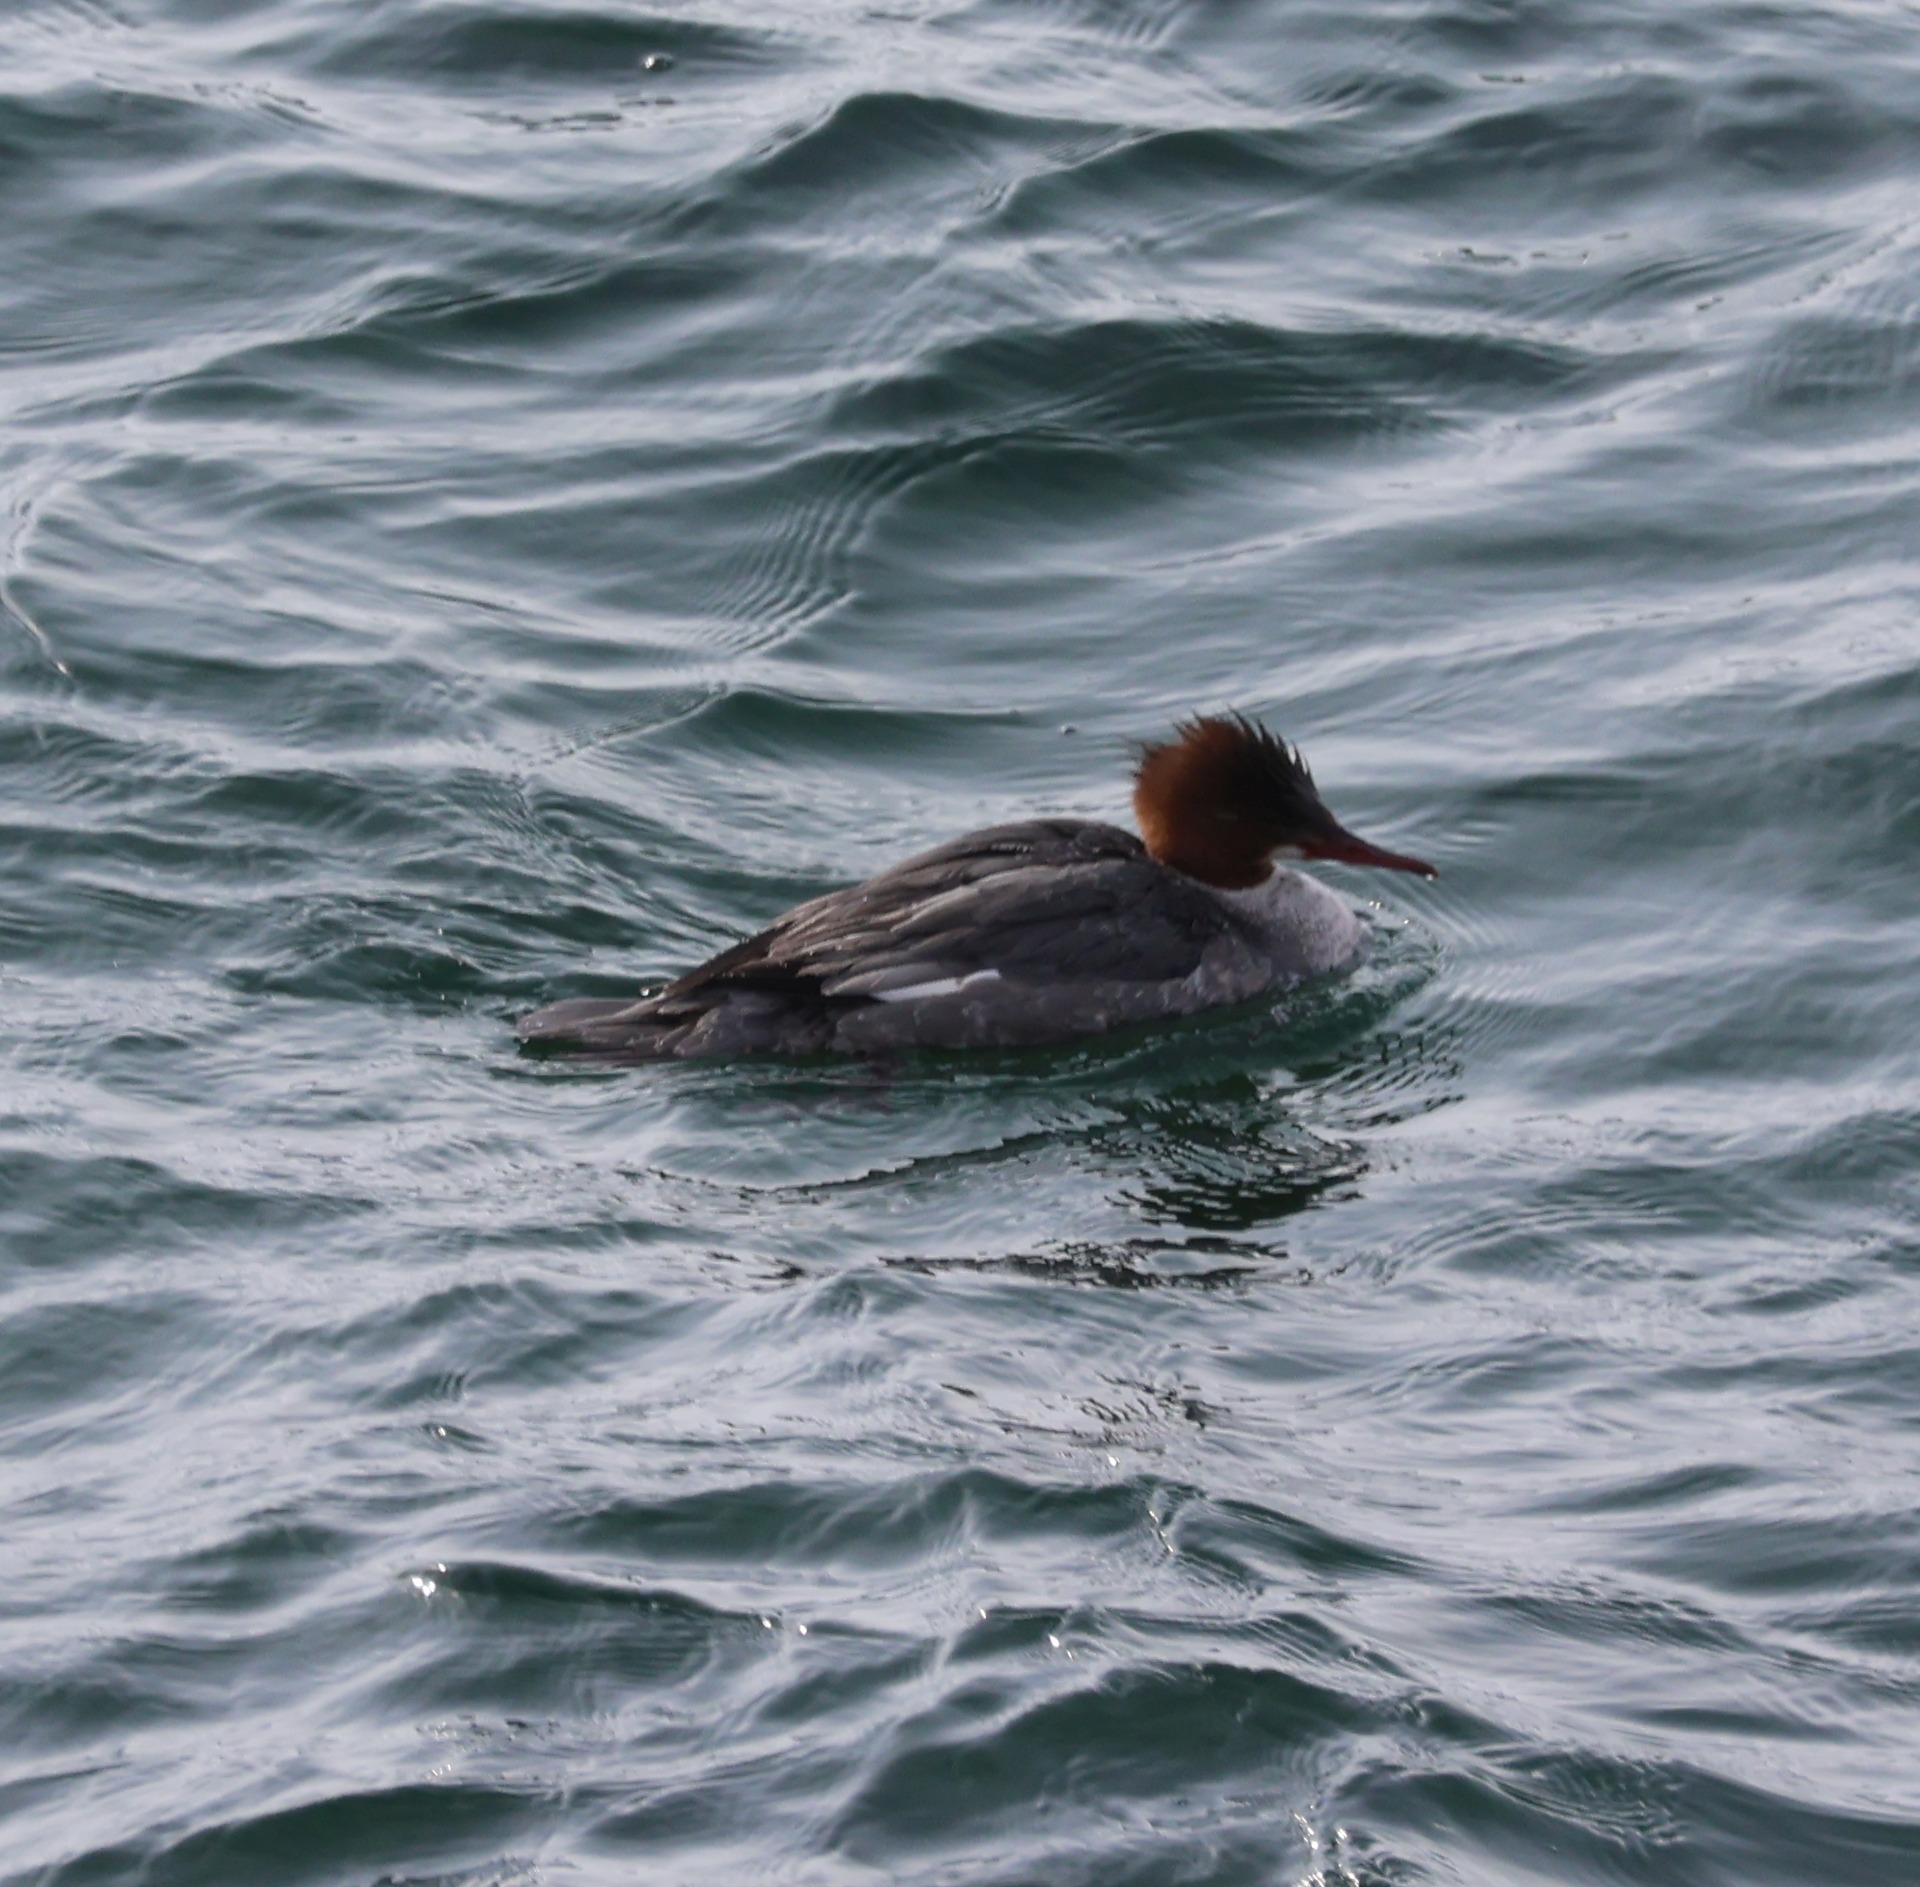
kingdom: Animalia
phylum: Chordata
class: Aves
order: Anseriformes
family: Anatidae
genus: Mergus
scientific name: Mergus merganser
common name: Common merganser
